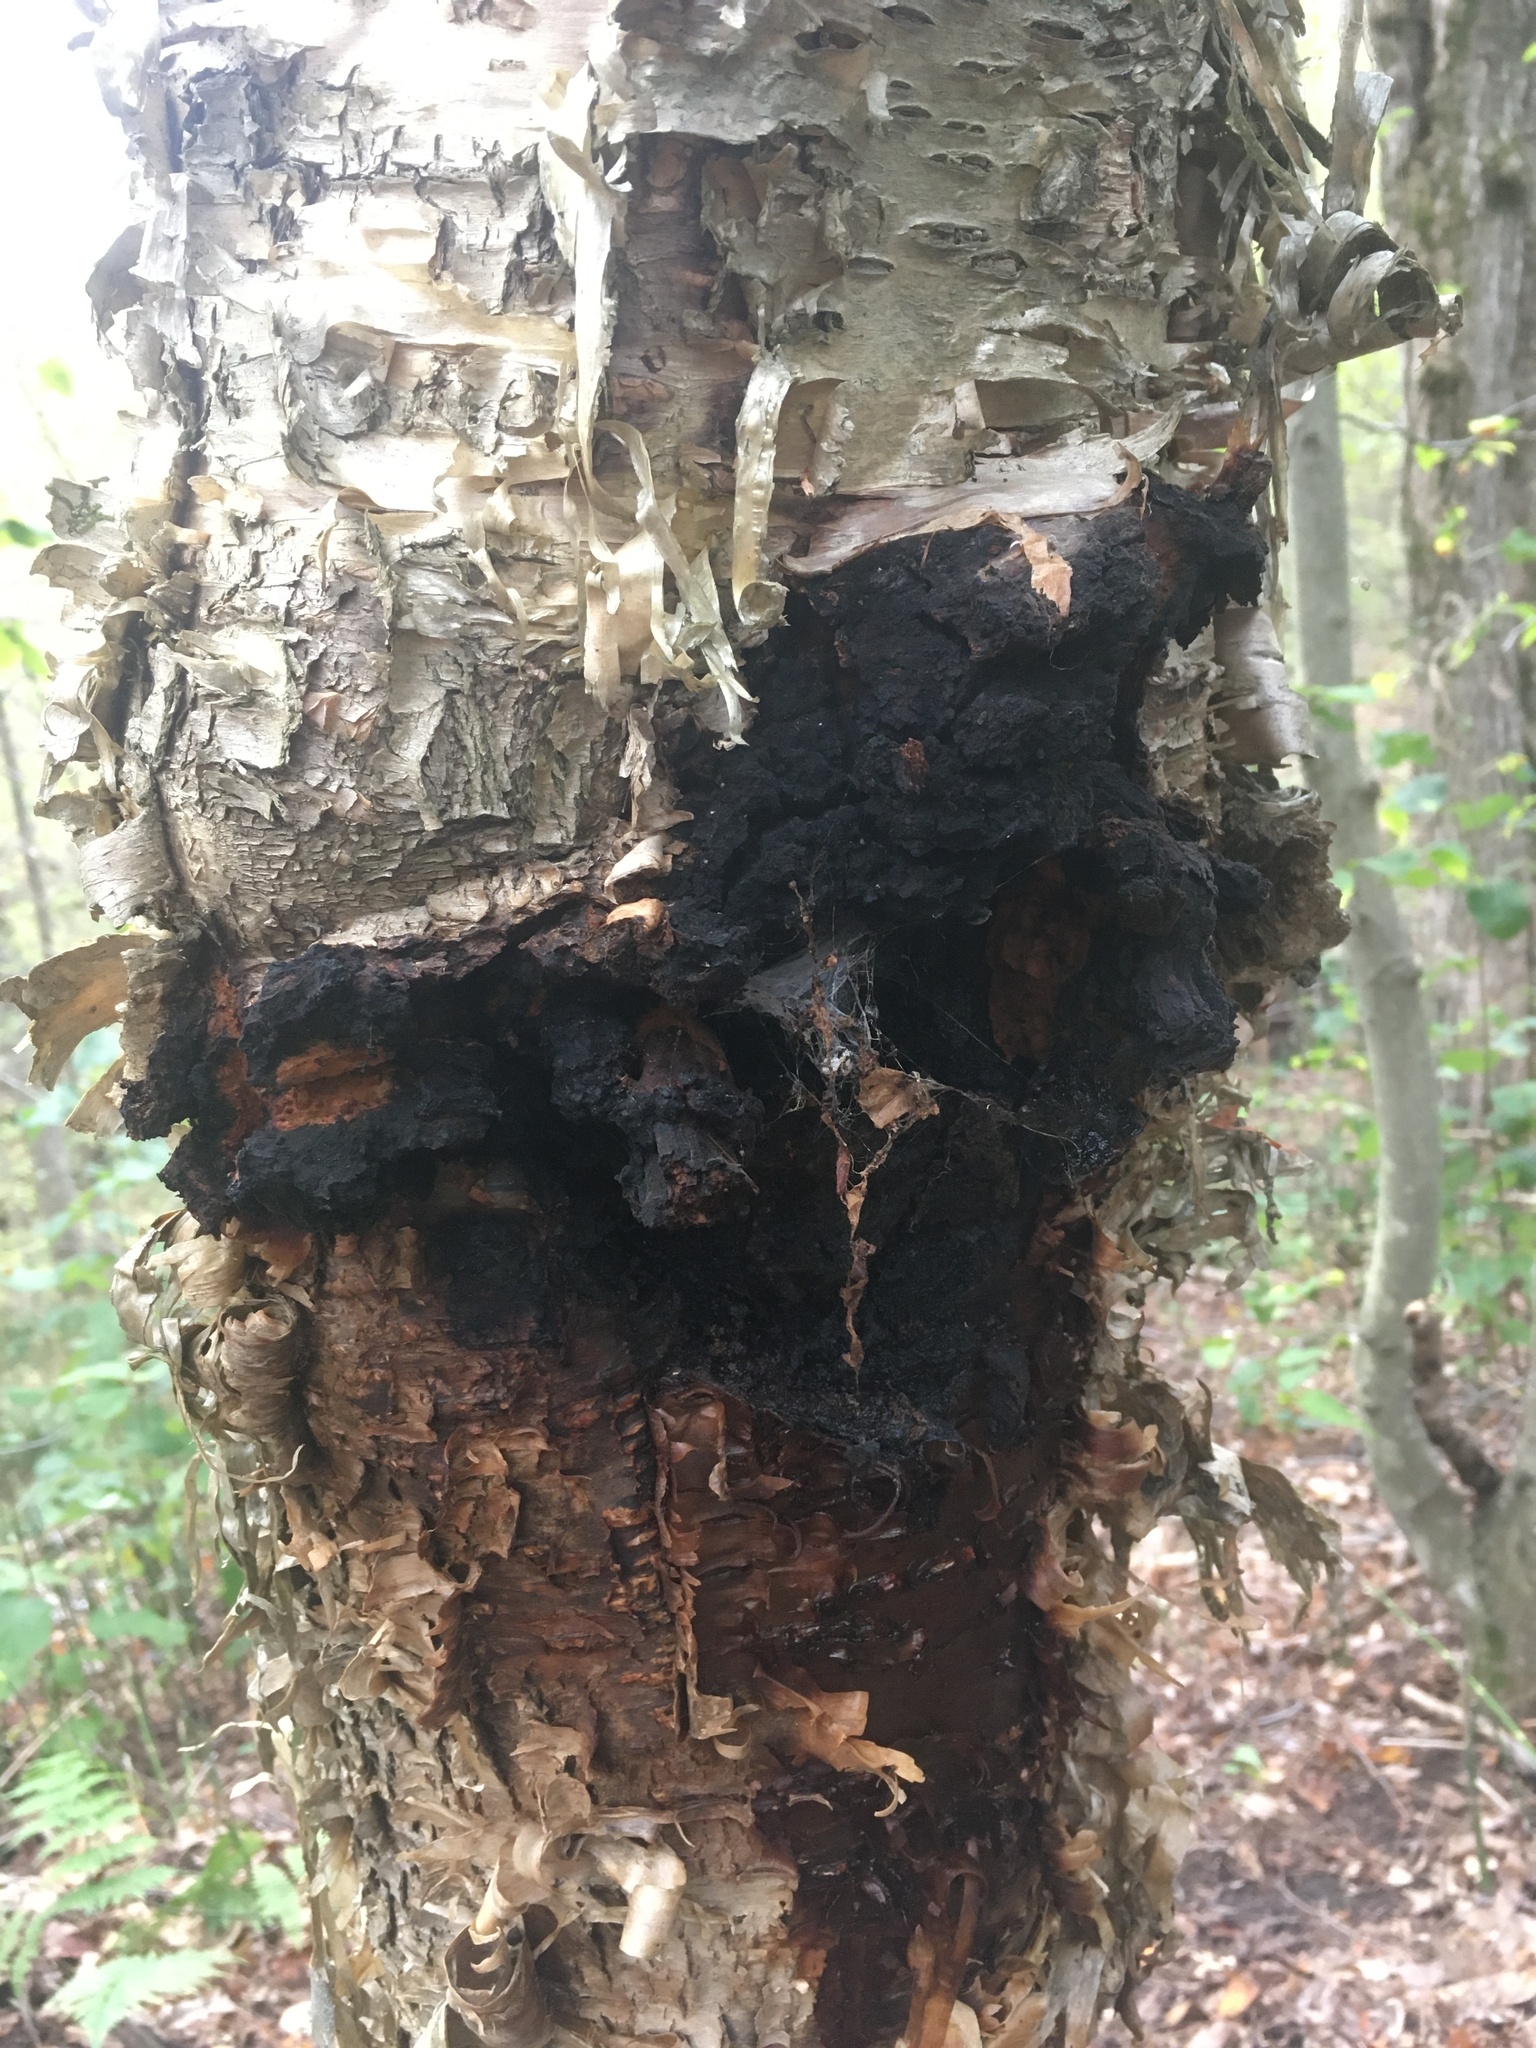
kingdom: Fungi
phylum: Basidiomycota
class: Agaricomycetes
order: Hymenochaetales
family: Hymenochaetaceae
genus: Inonotus
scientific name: Inonotus obliquus
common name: Chaga
